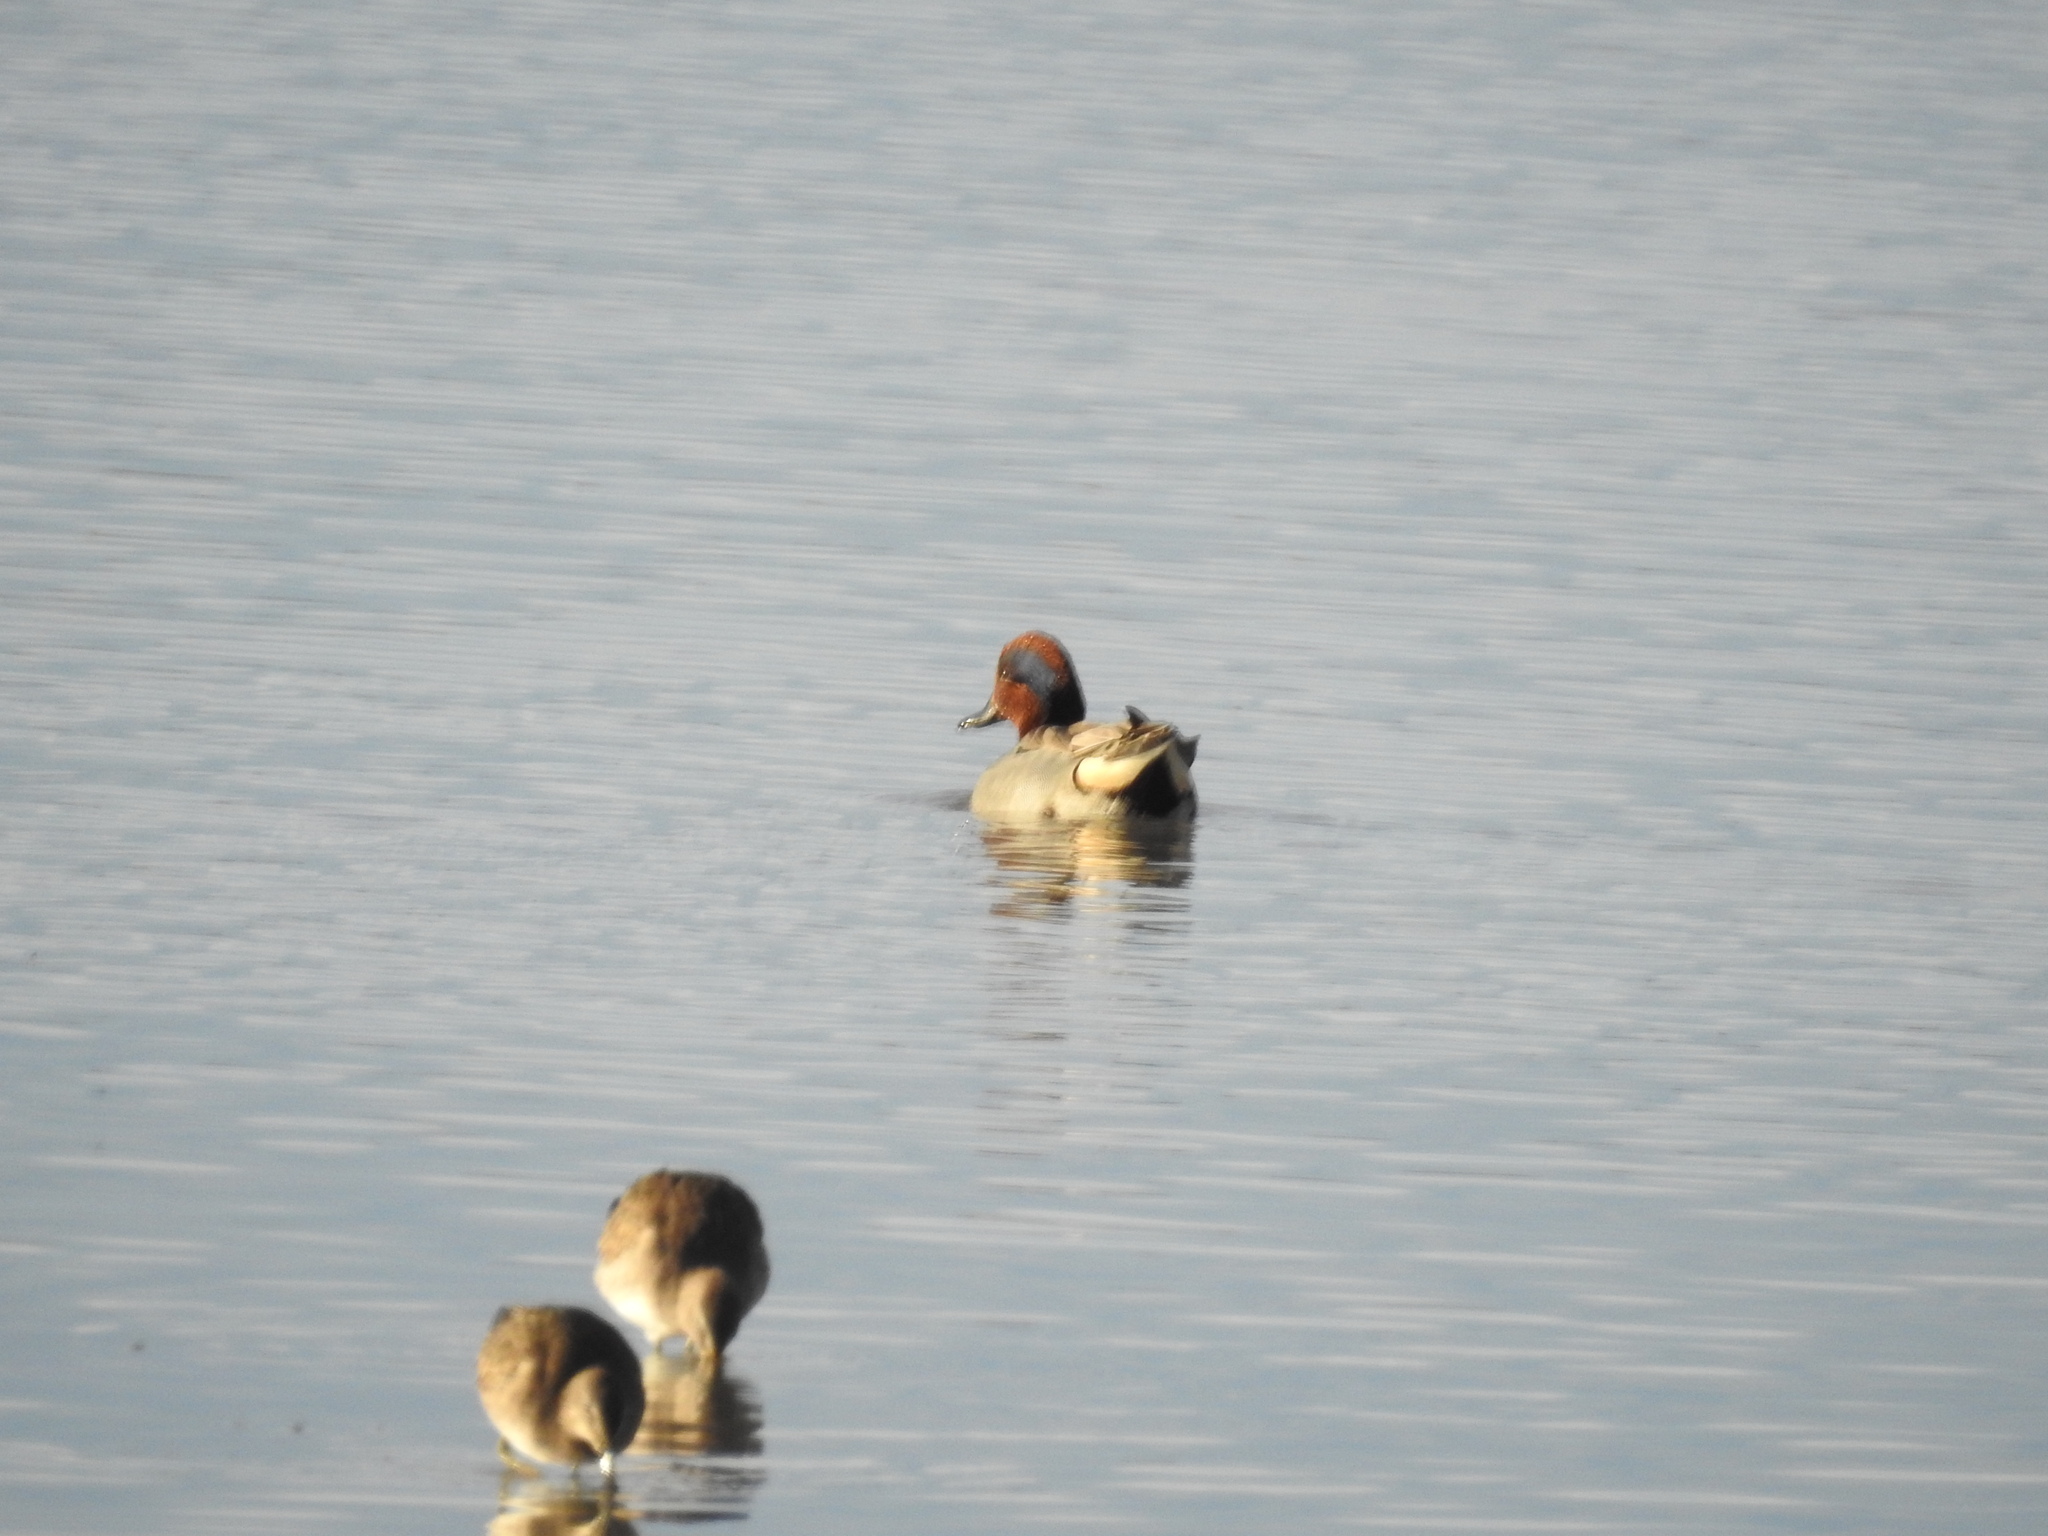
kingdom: Animalia
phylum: Chordata
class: Aves
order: Anseriformes
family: Anatidae
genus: Anas
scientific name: Anas crecca
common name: Eurasian teal
